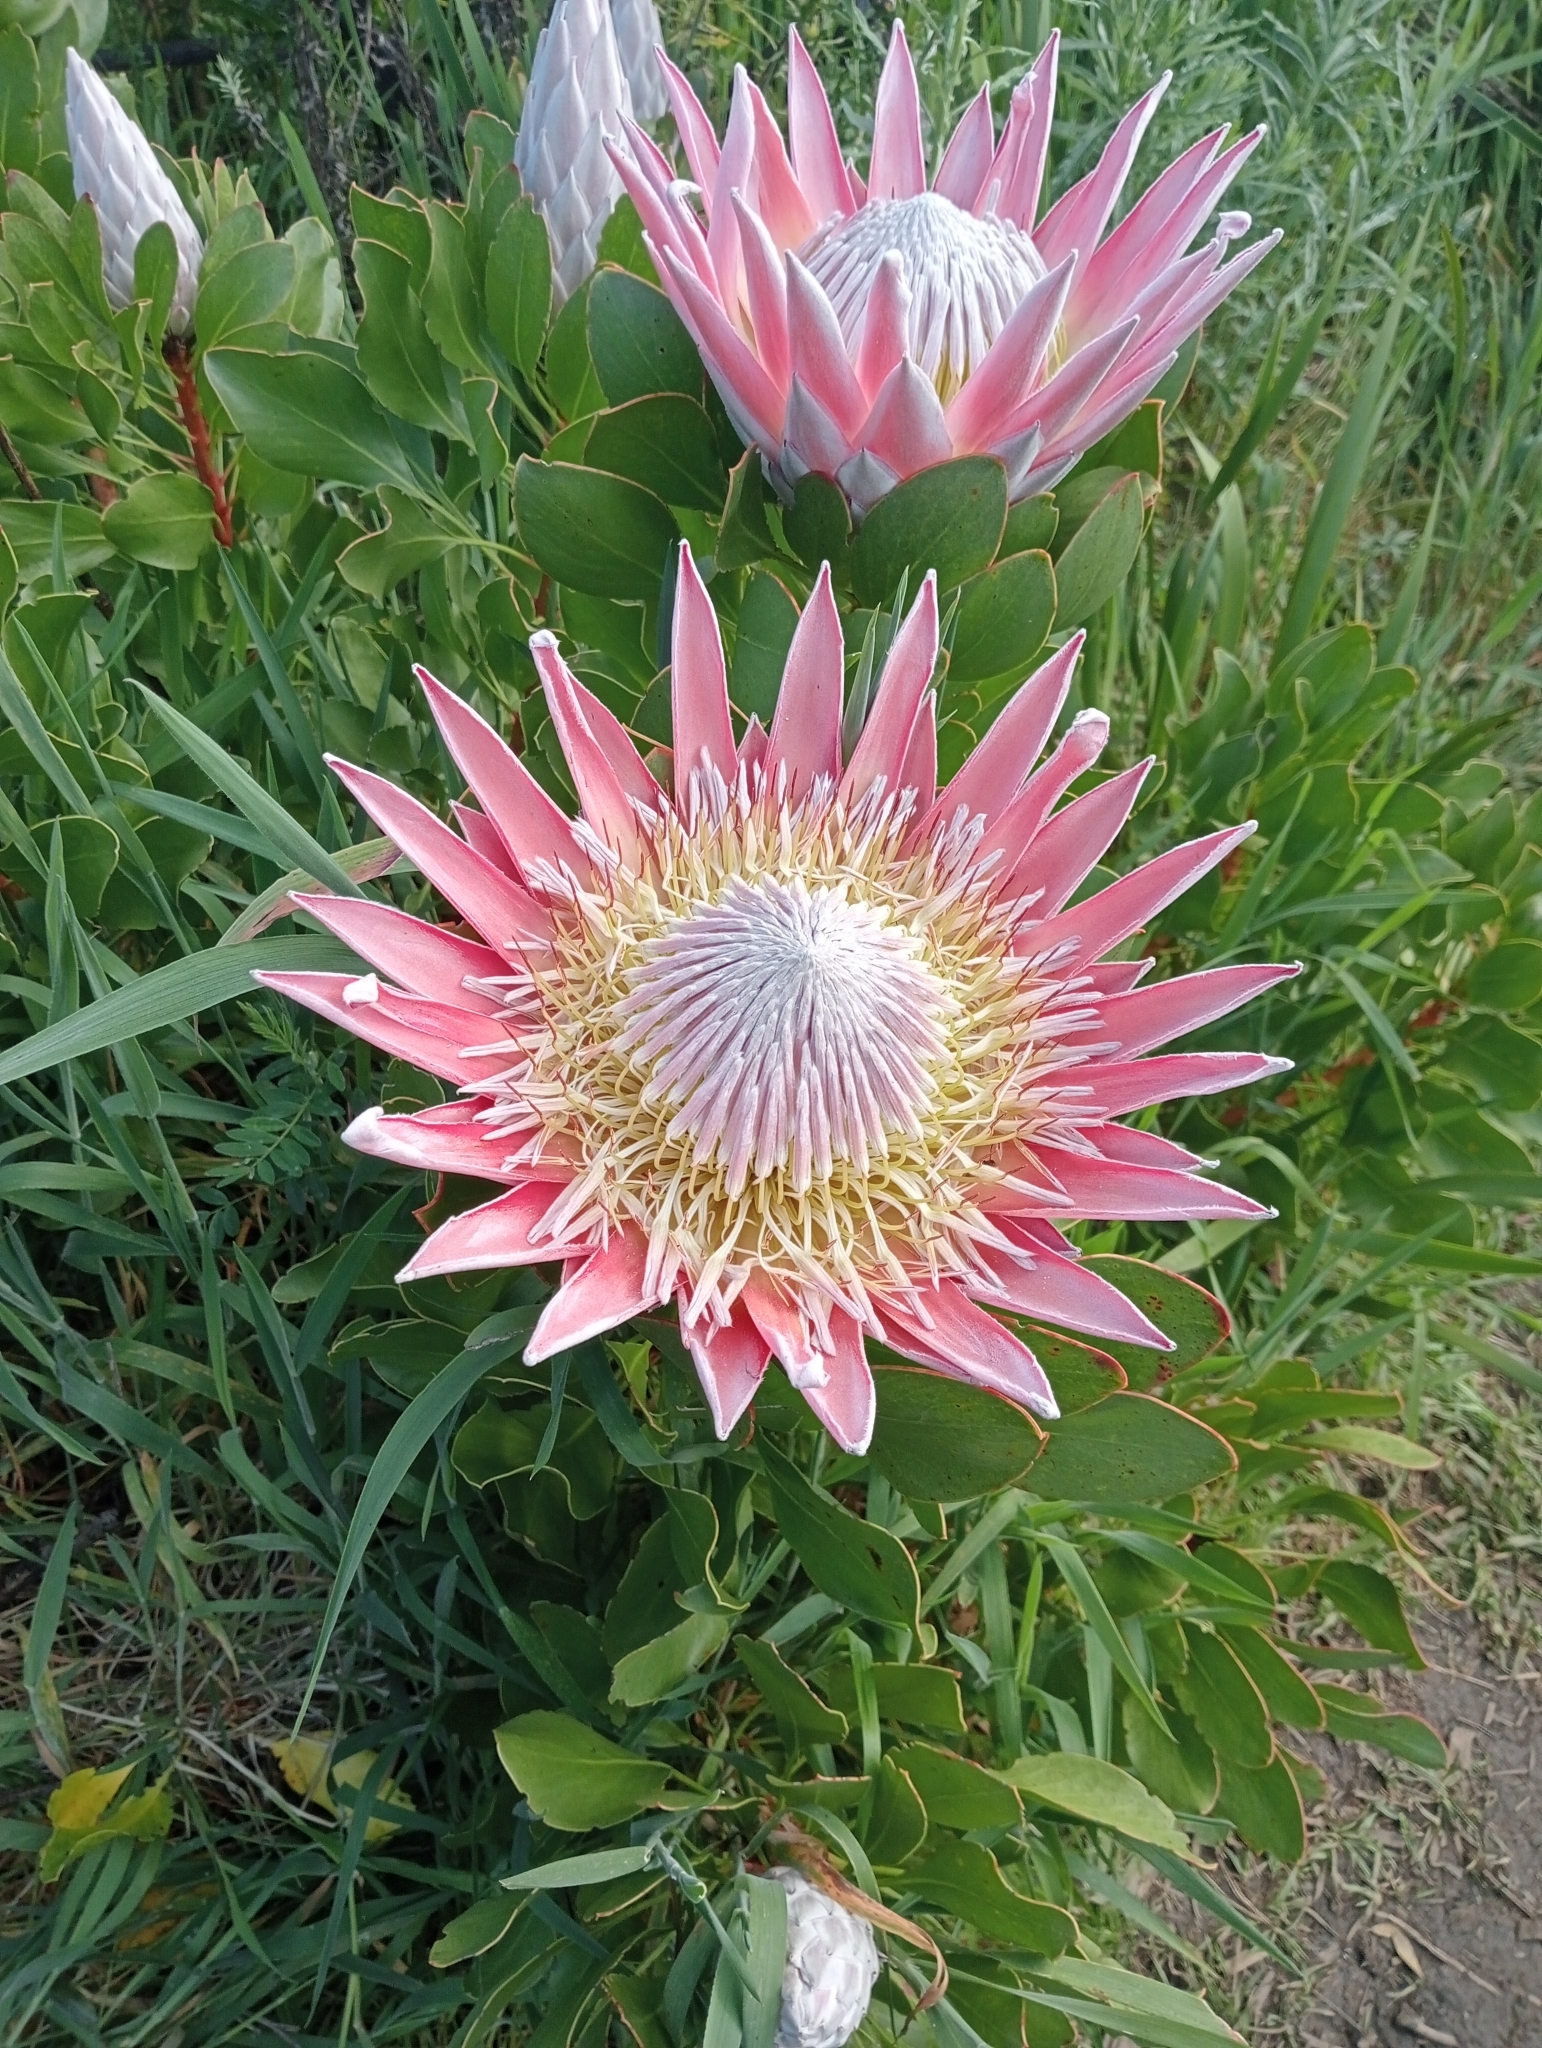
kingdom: Plantae
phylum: Tracheophyta
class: Magnoliopsida
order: Proteales
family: Proteaceae
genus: Protea
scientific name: Protea cynaroides
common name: King protea
